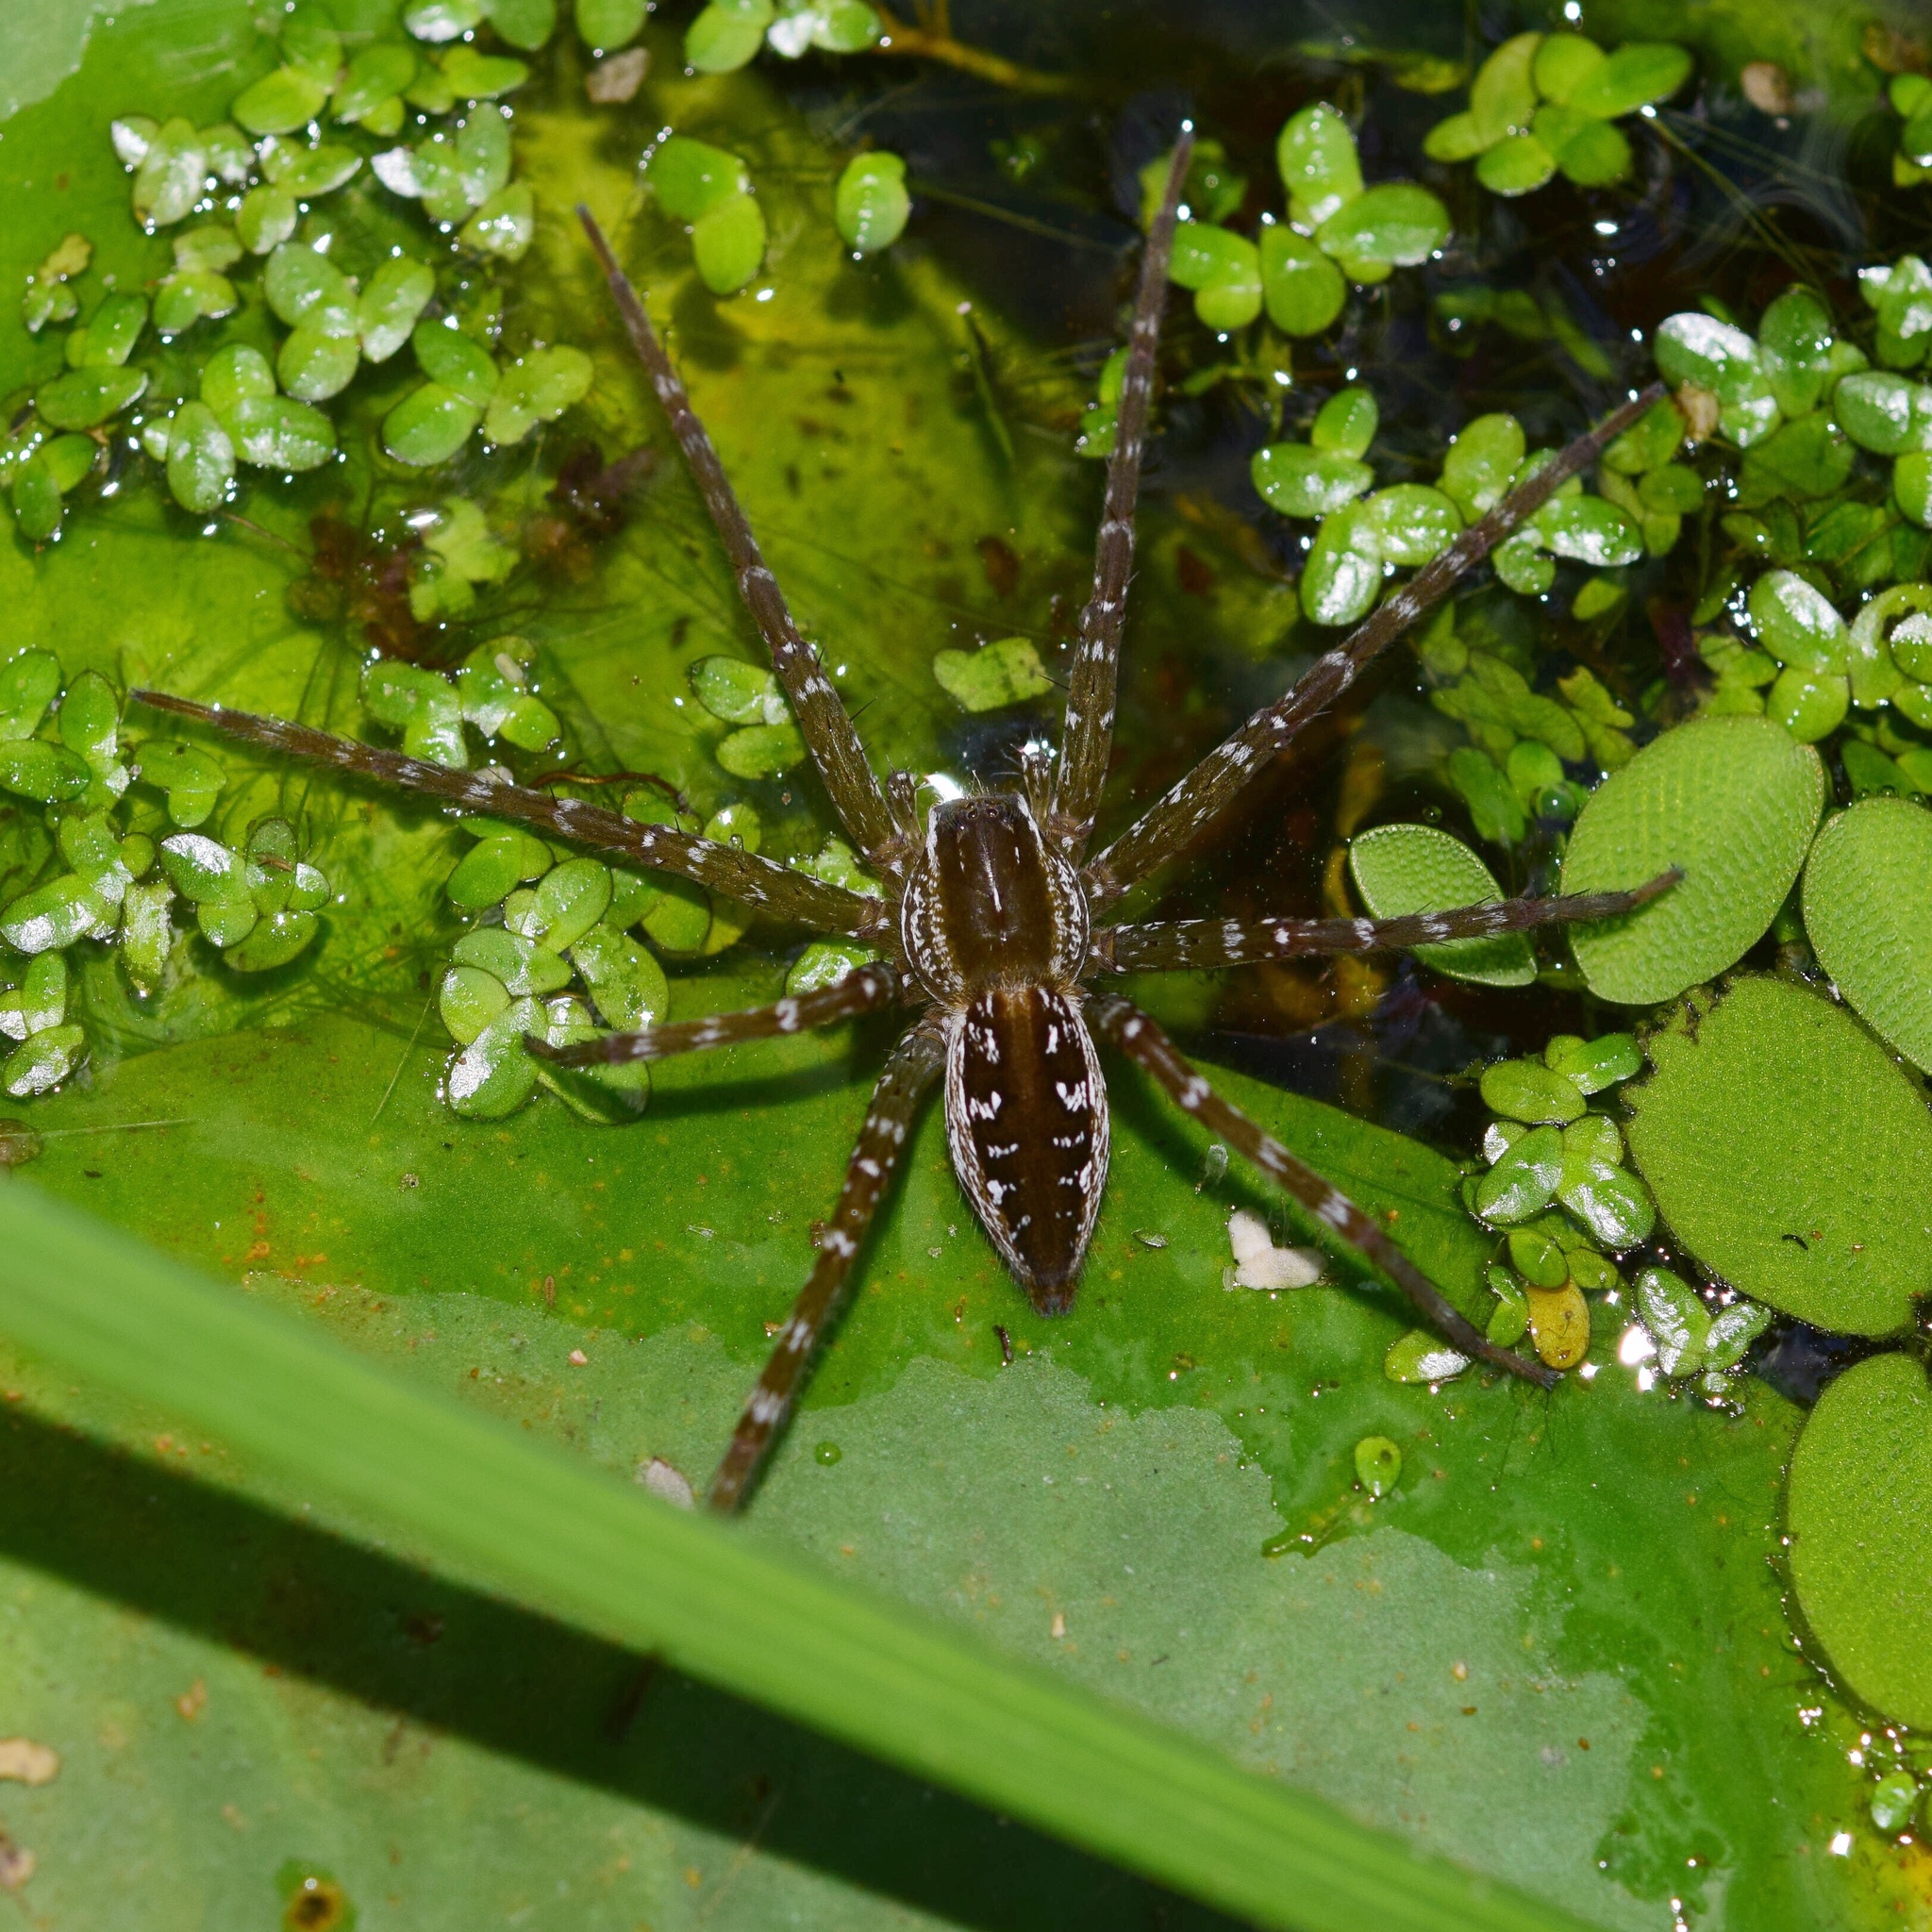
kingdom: Animalia
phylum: Arthropoda
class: Arachnida
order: Araneae
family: Pisauridae
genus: Nilus
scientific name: Nilus curtus
